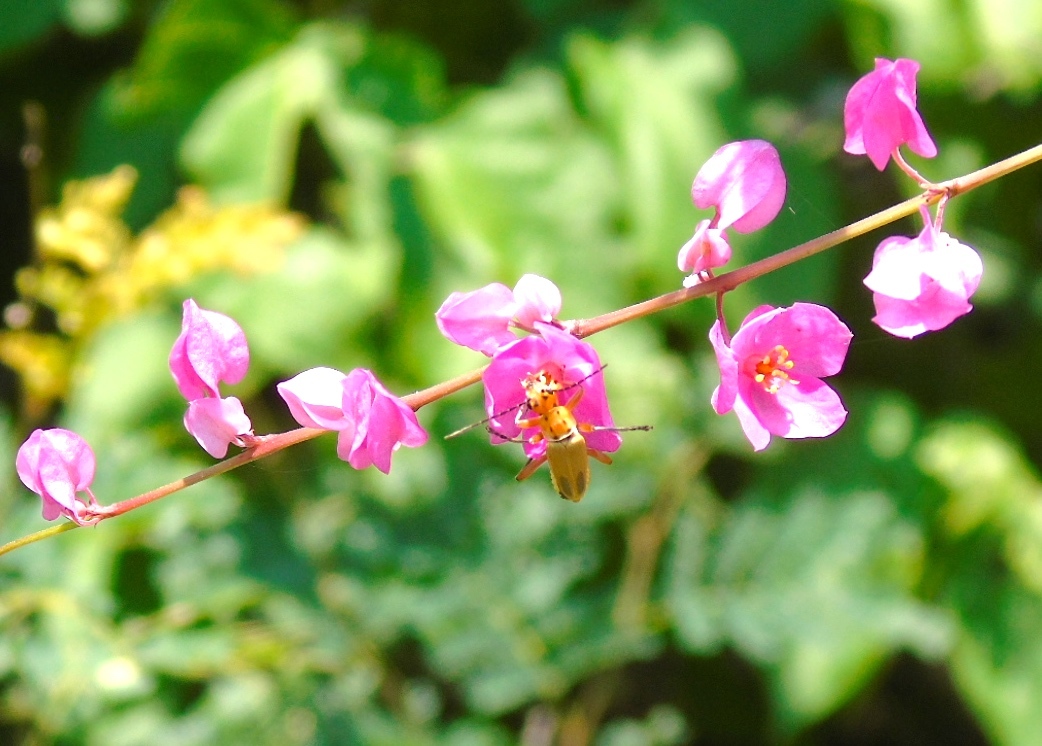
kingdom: Plantae
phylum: Tracheophyta
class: Magnoliopsida
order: Caryophyllales
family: Polygonaceae
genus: Antigonon
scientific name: Antigonon leptopus
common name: Coral vine
